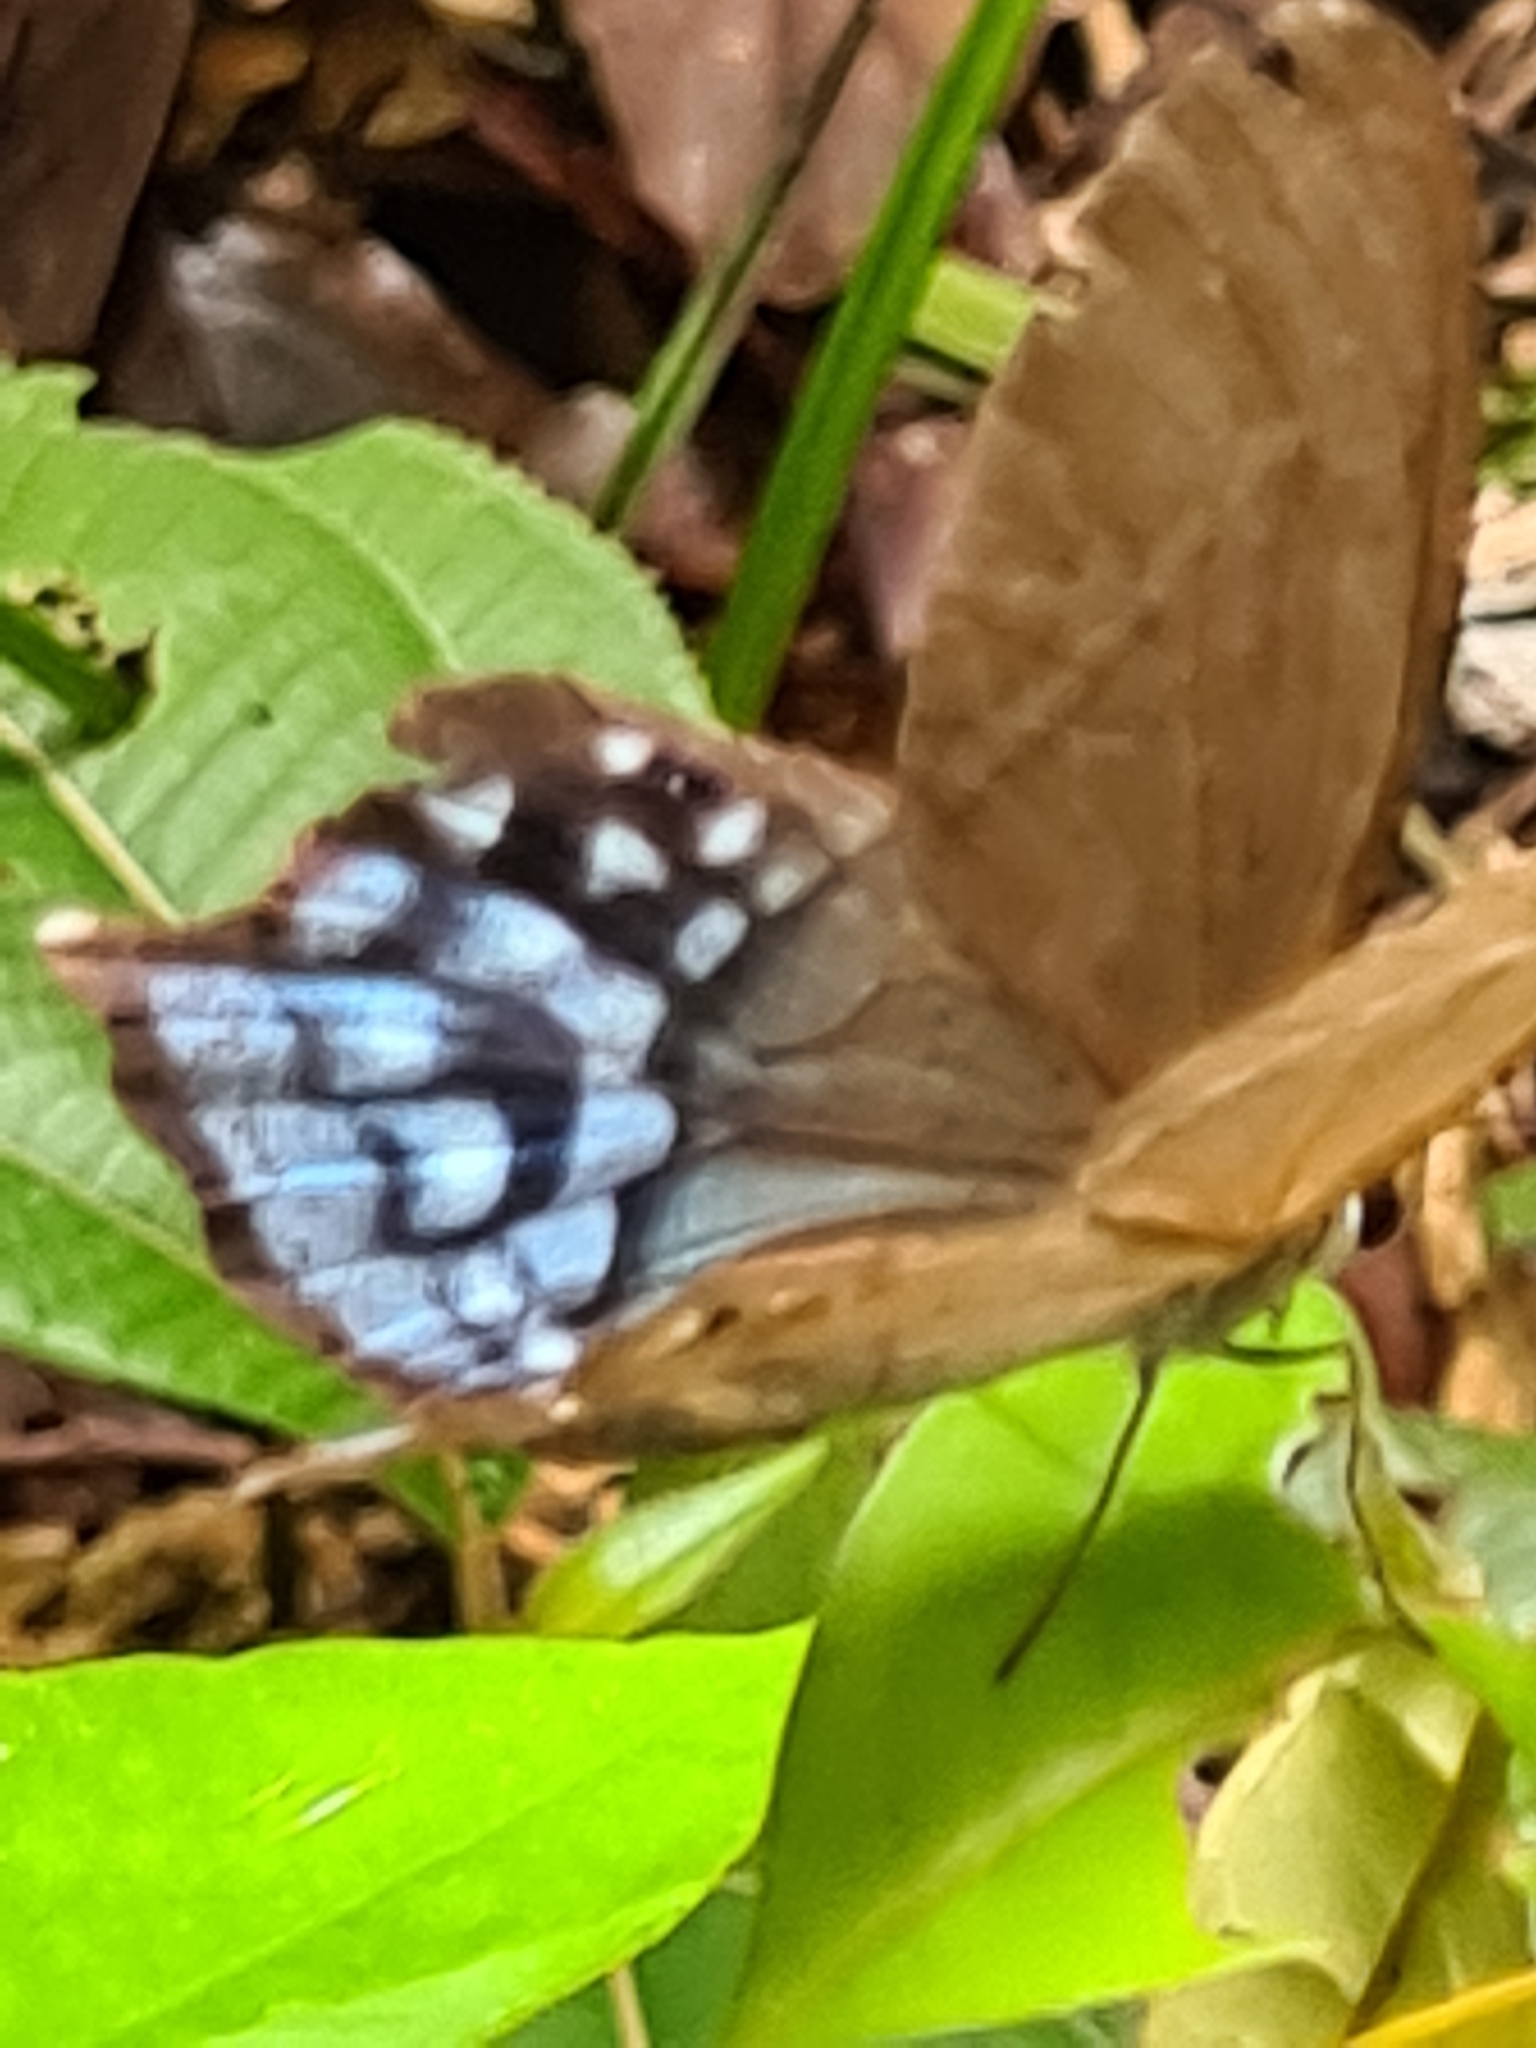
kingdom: Animalia
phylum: Arthropoda
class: Insecta
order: Lepidoptera
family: Nymphalidae
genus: Pierella
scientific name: Pierella dracontis
